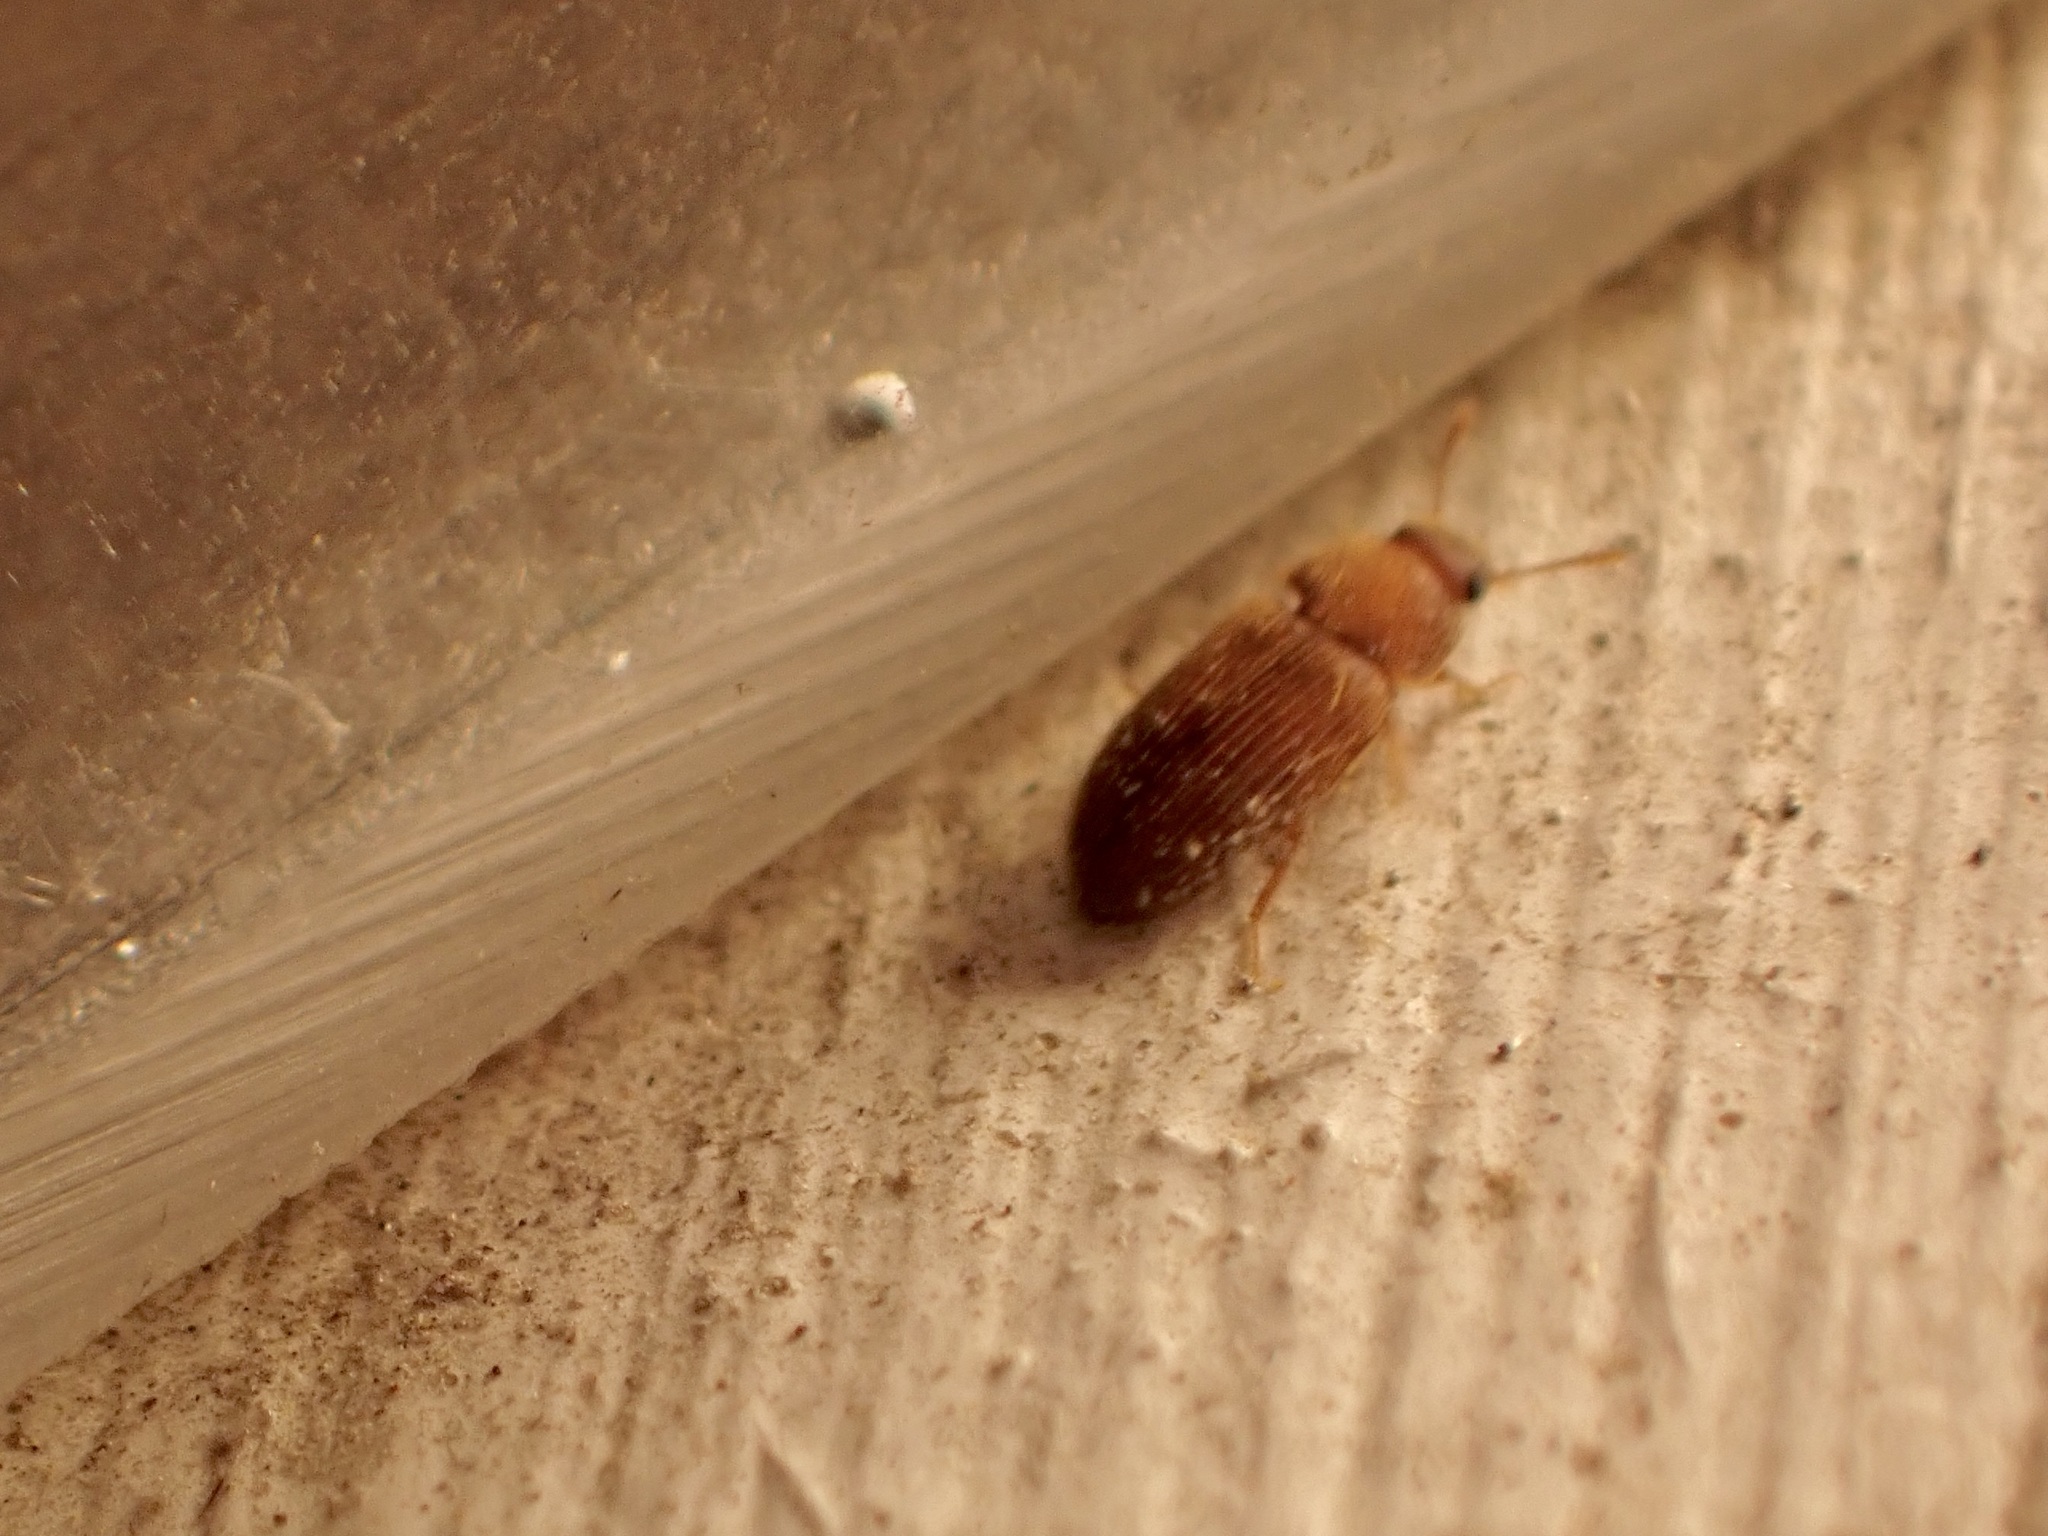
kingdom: Animalia
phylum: Arthropoda
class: Insecta
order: Coleoptera
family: Mycetophagidae
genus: Typhaea
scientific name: Typhaea stercorea
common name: Hairy fungus beetle
